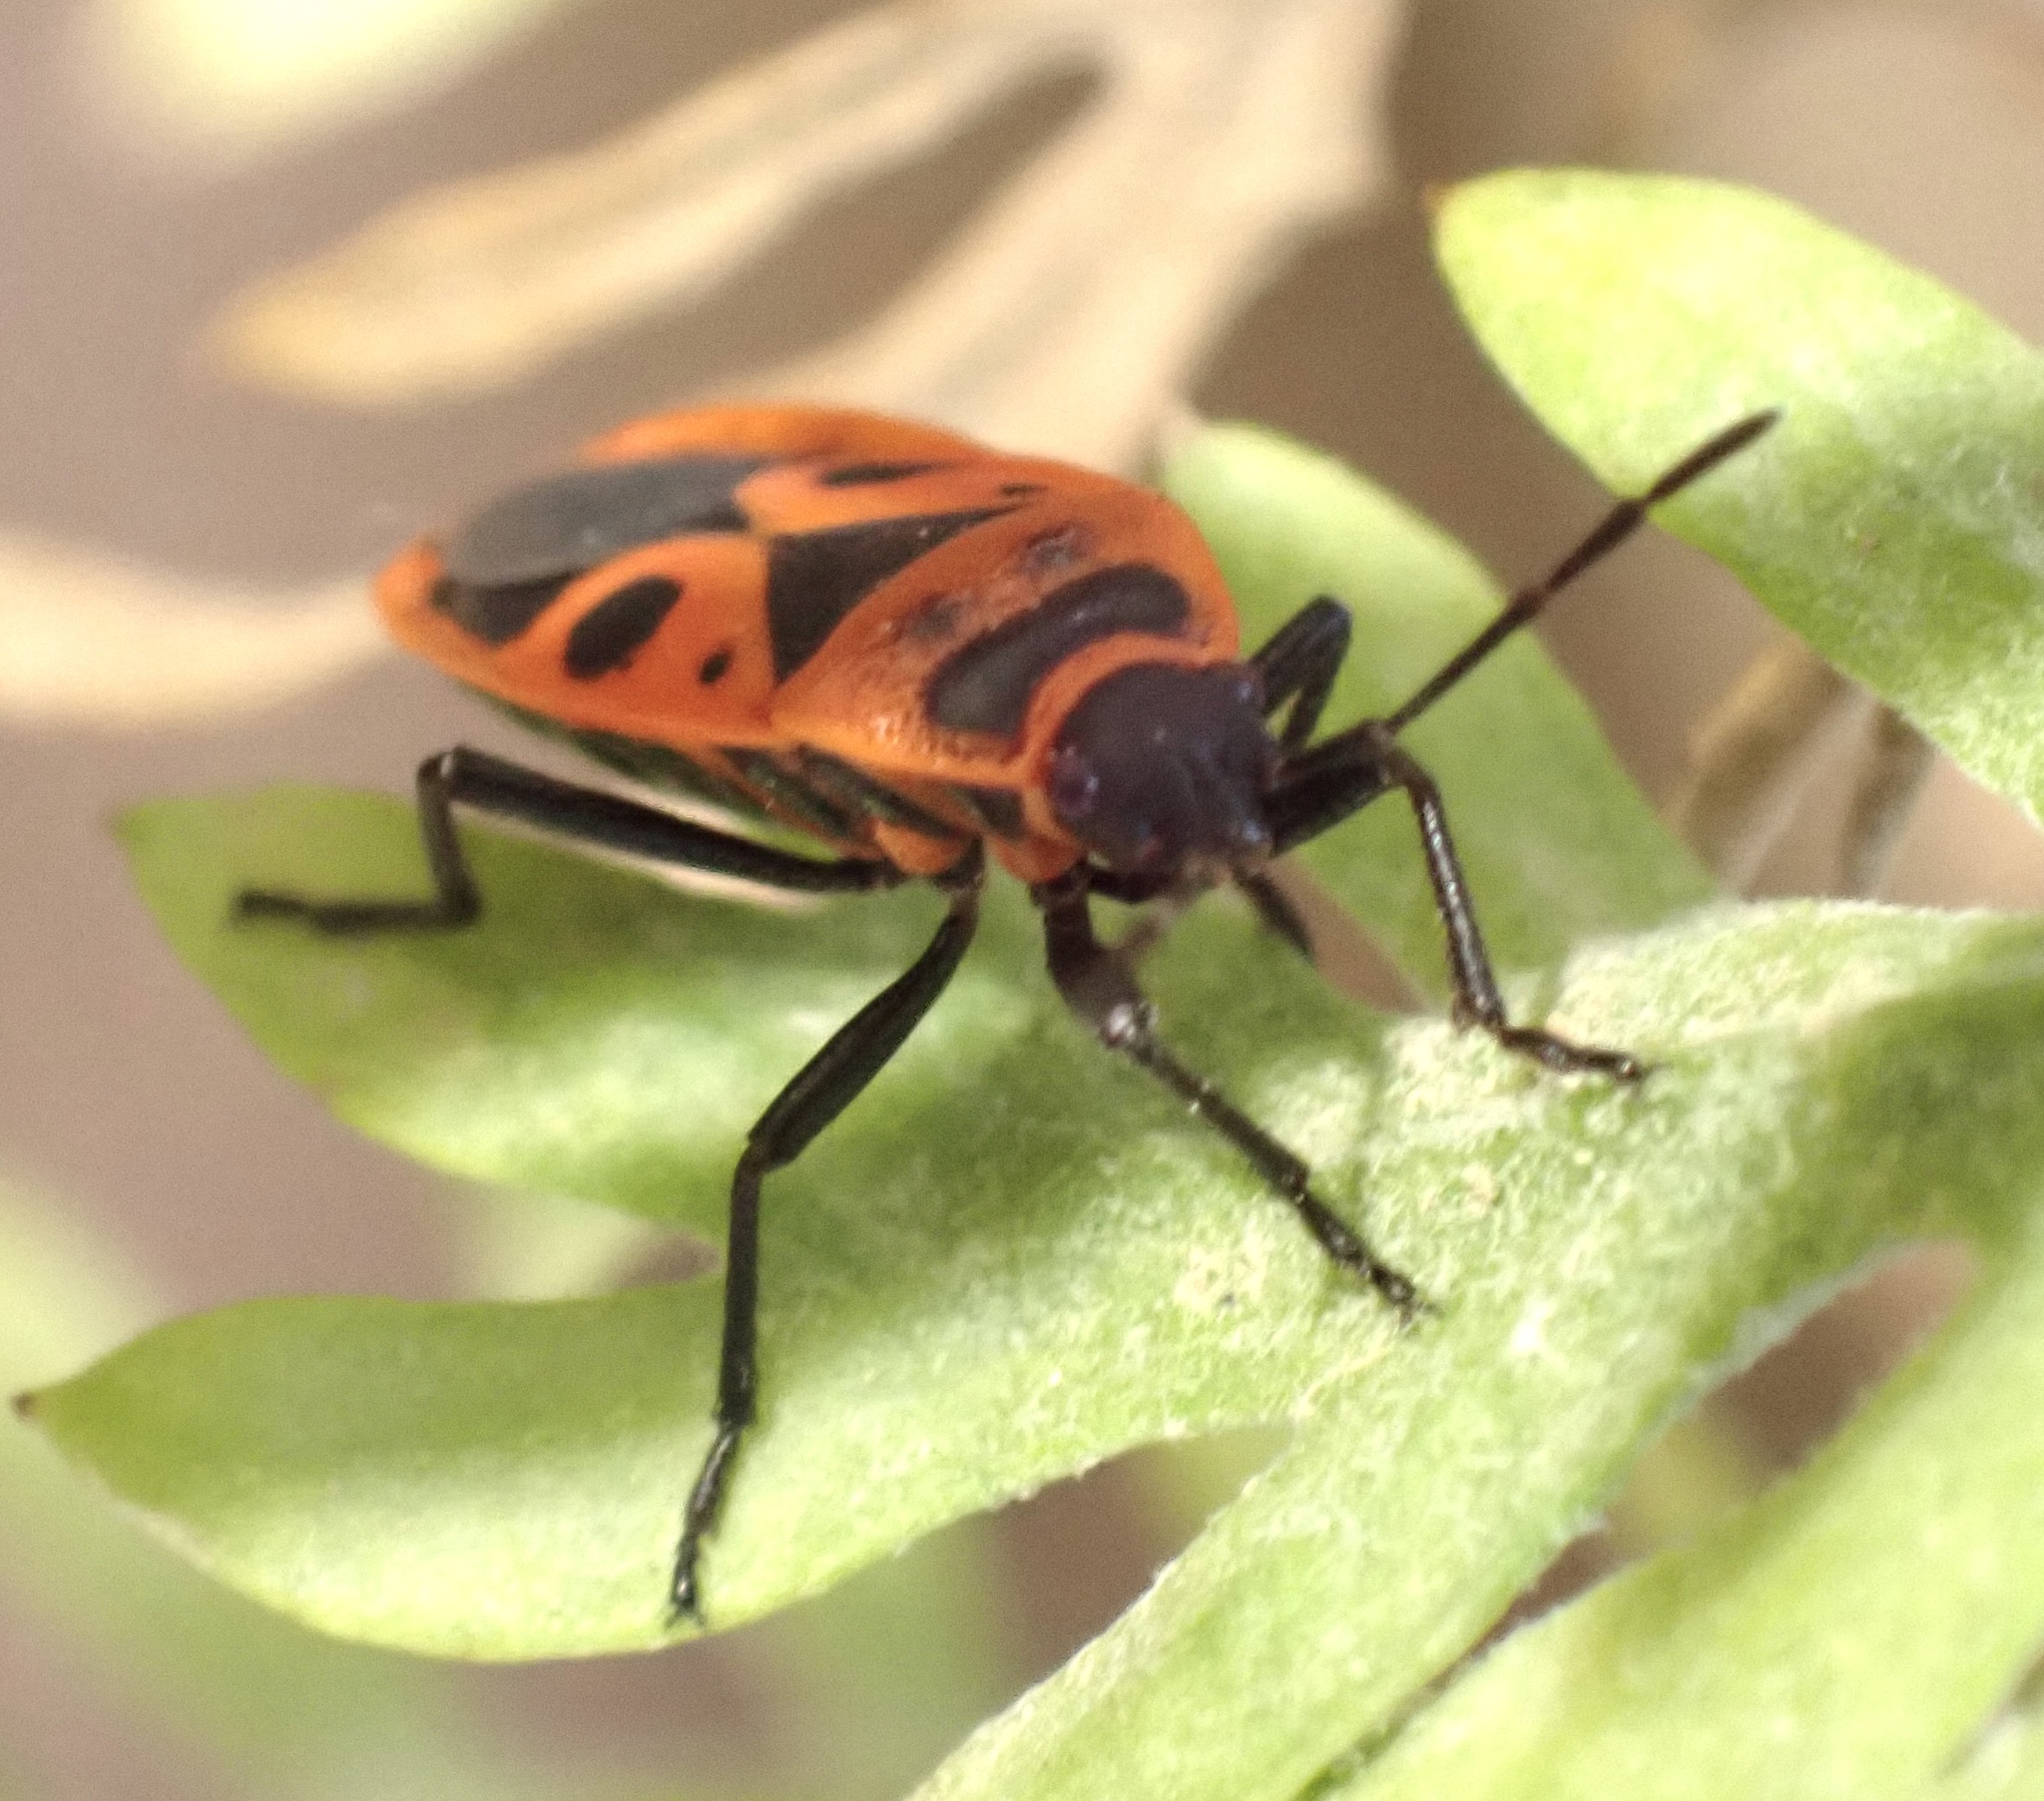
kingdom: Animalia
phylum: Arthropoda
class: Insecta
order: Hemiptera
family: Pyrrhocoridae
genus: Pyrrhocoris
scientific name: Pyrrhocoris apterus
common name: Firebug
